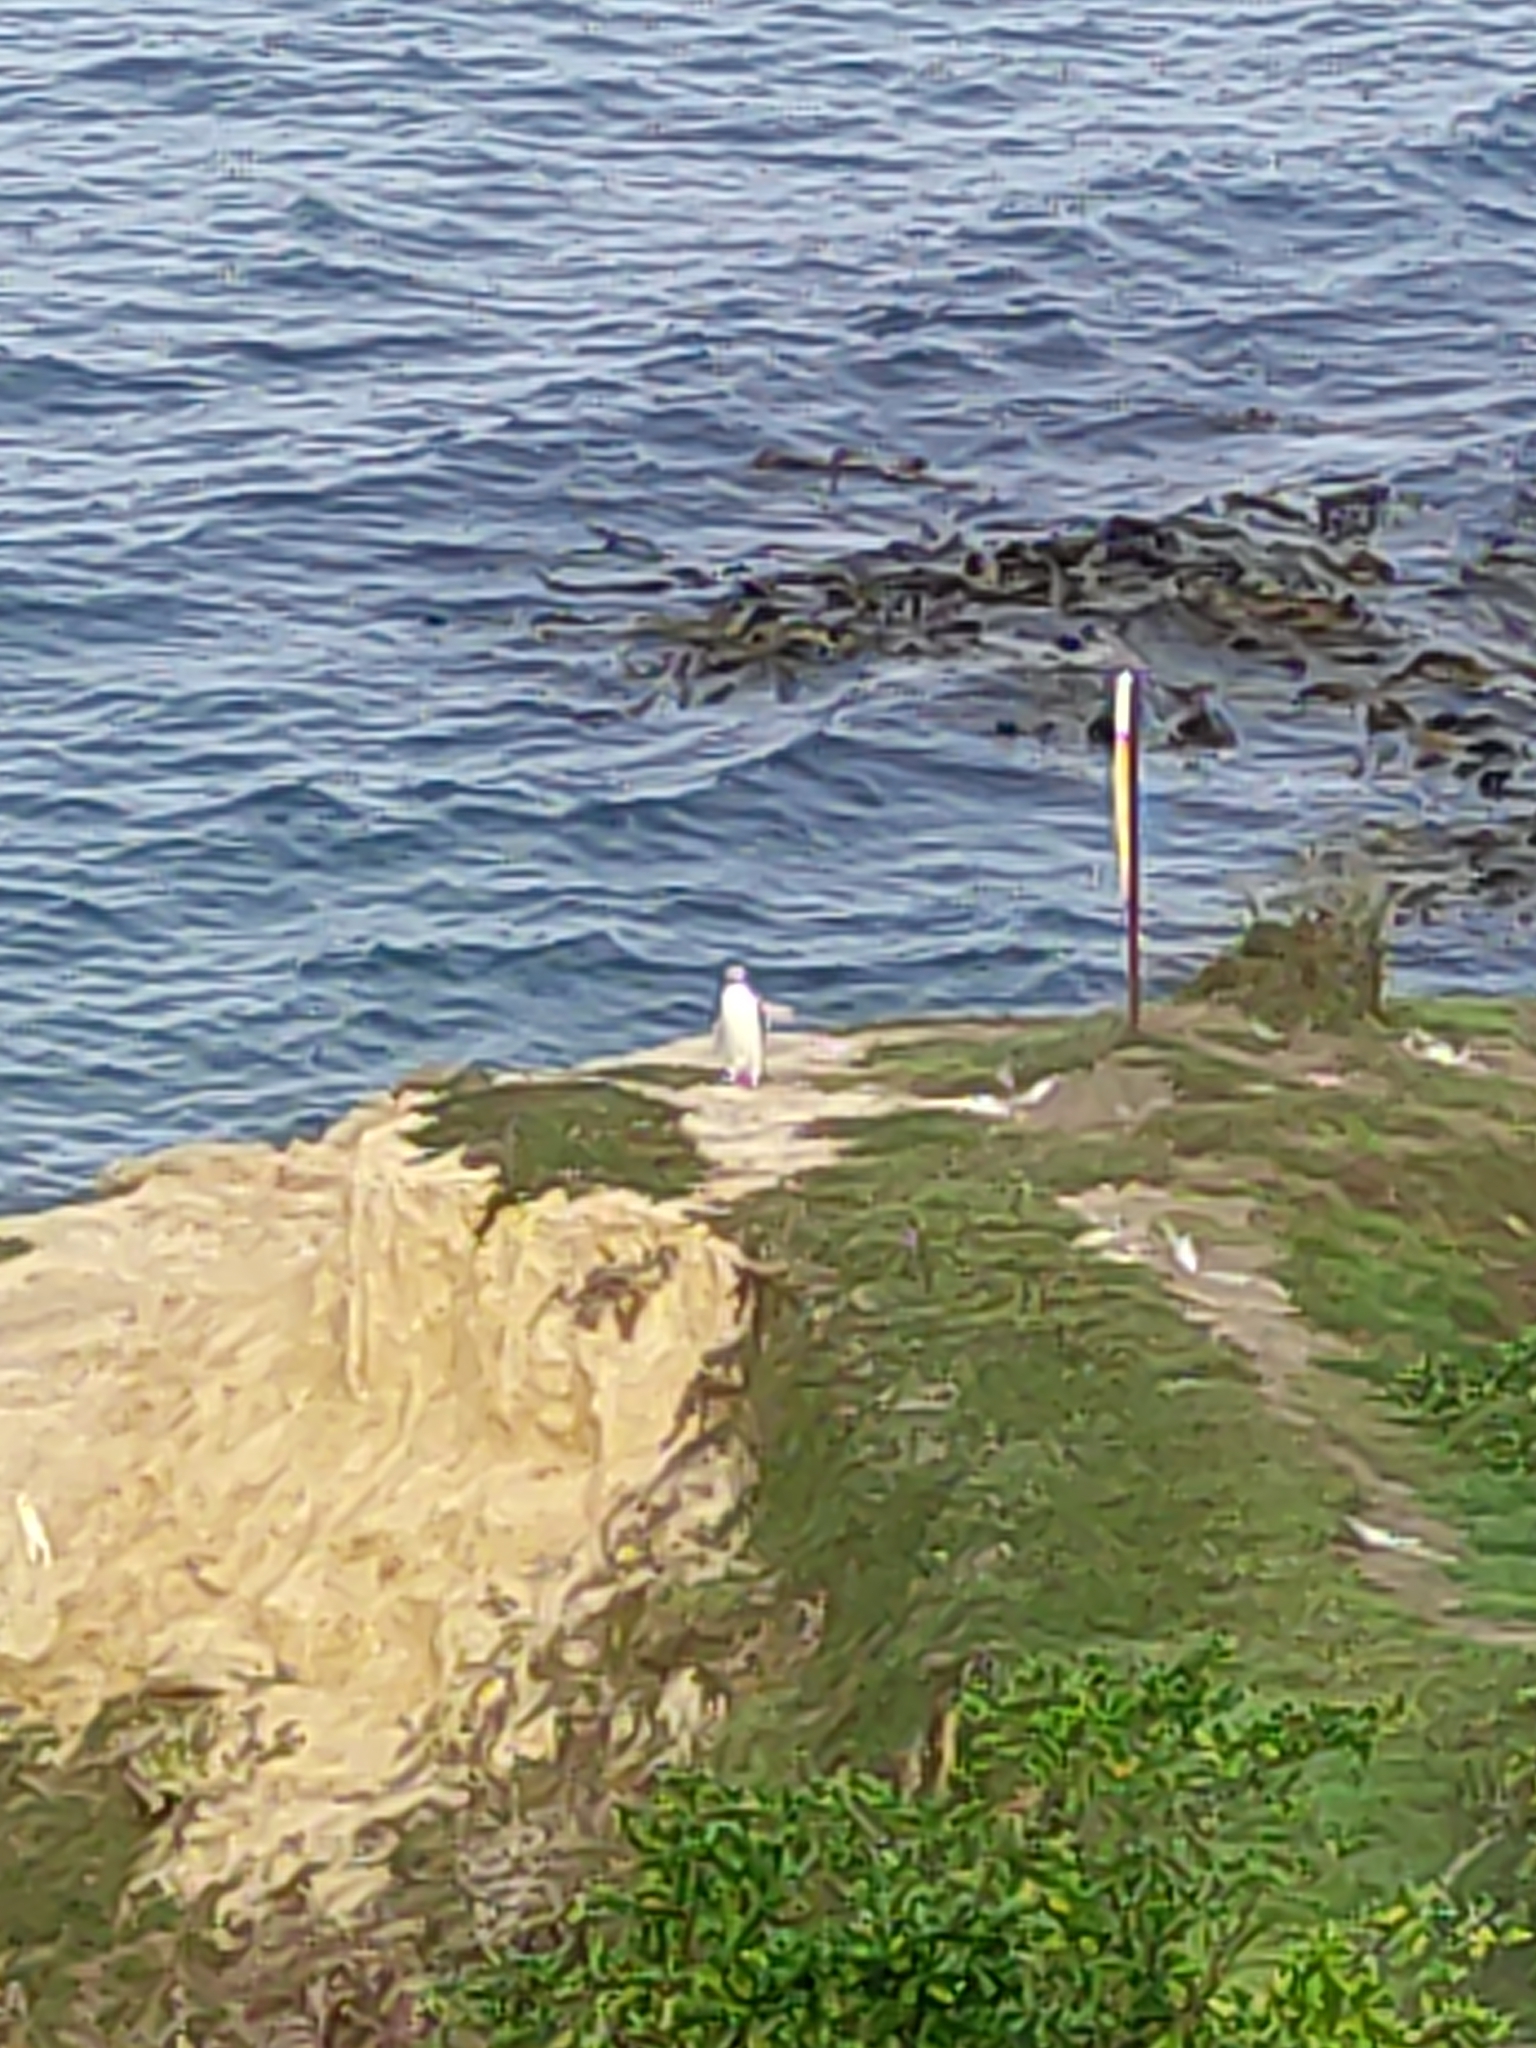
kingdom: Animalia
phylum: Chordata
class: Aves
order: Sphenisciformes
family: Spheniscidae
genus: Megadyptes
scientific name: Megadyptes antipodes
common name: Yellow-eyed penguin
